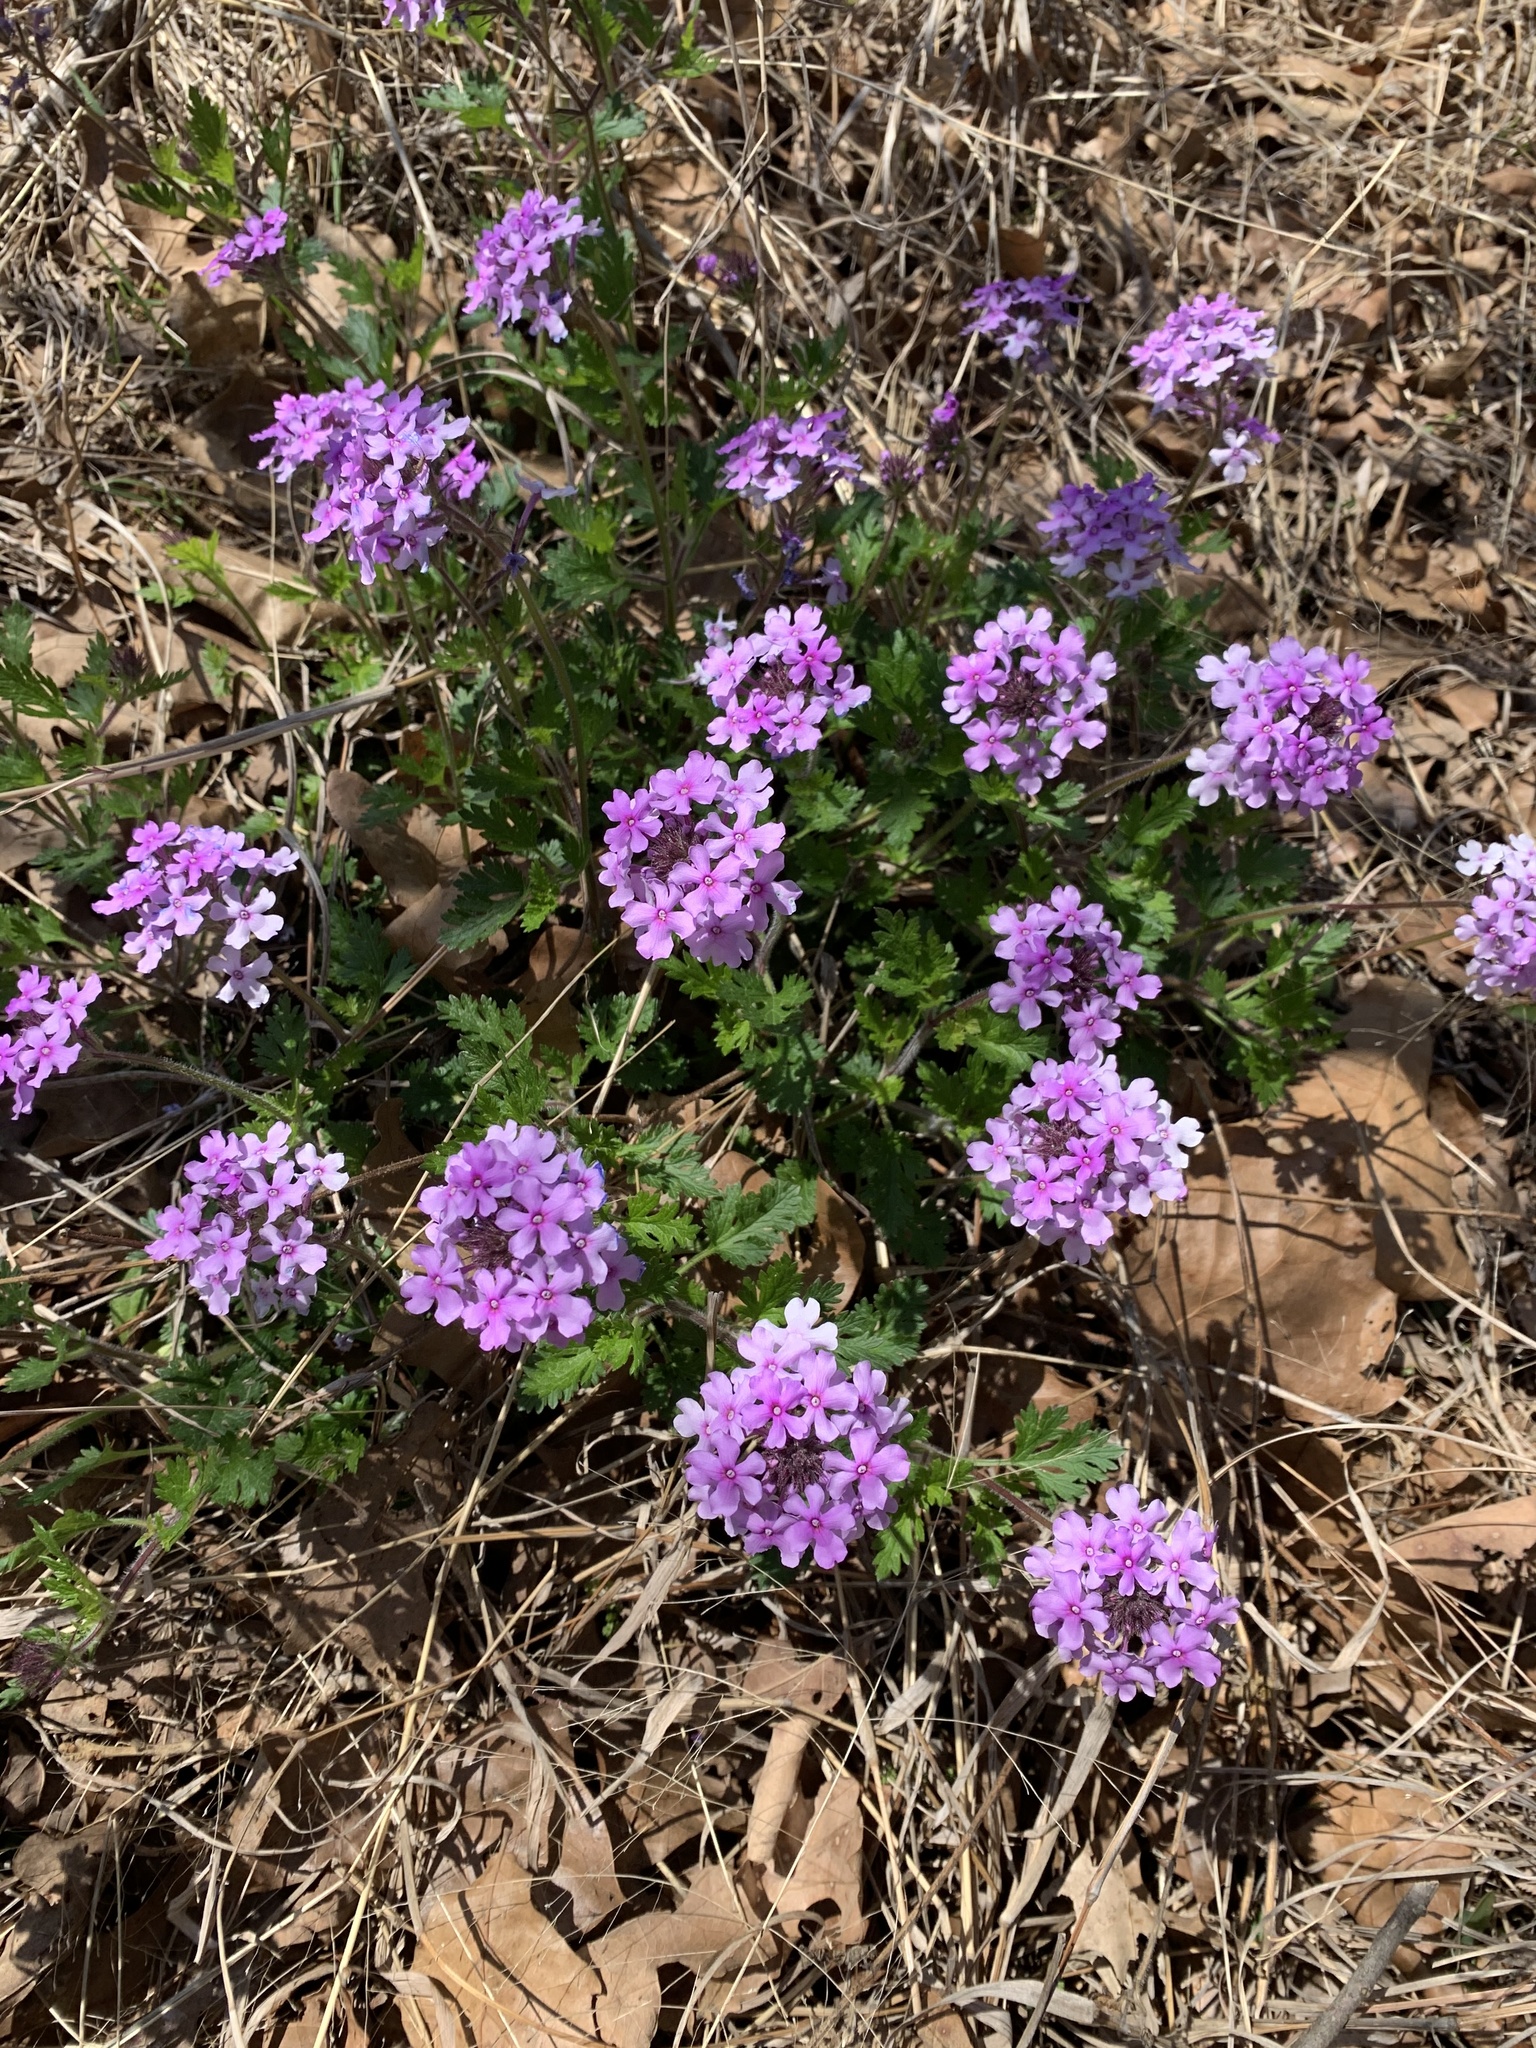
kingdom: Plantae
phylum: Tracheophyta
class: Magnoliopsida
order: Lamiales
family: Verbenaceae
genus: Verbena
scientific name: Verbena bipinnatifida
